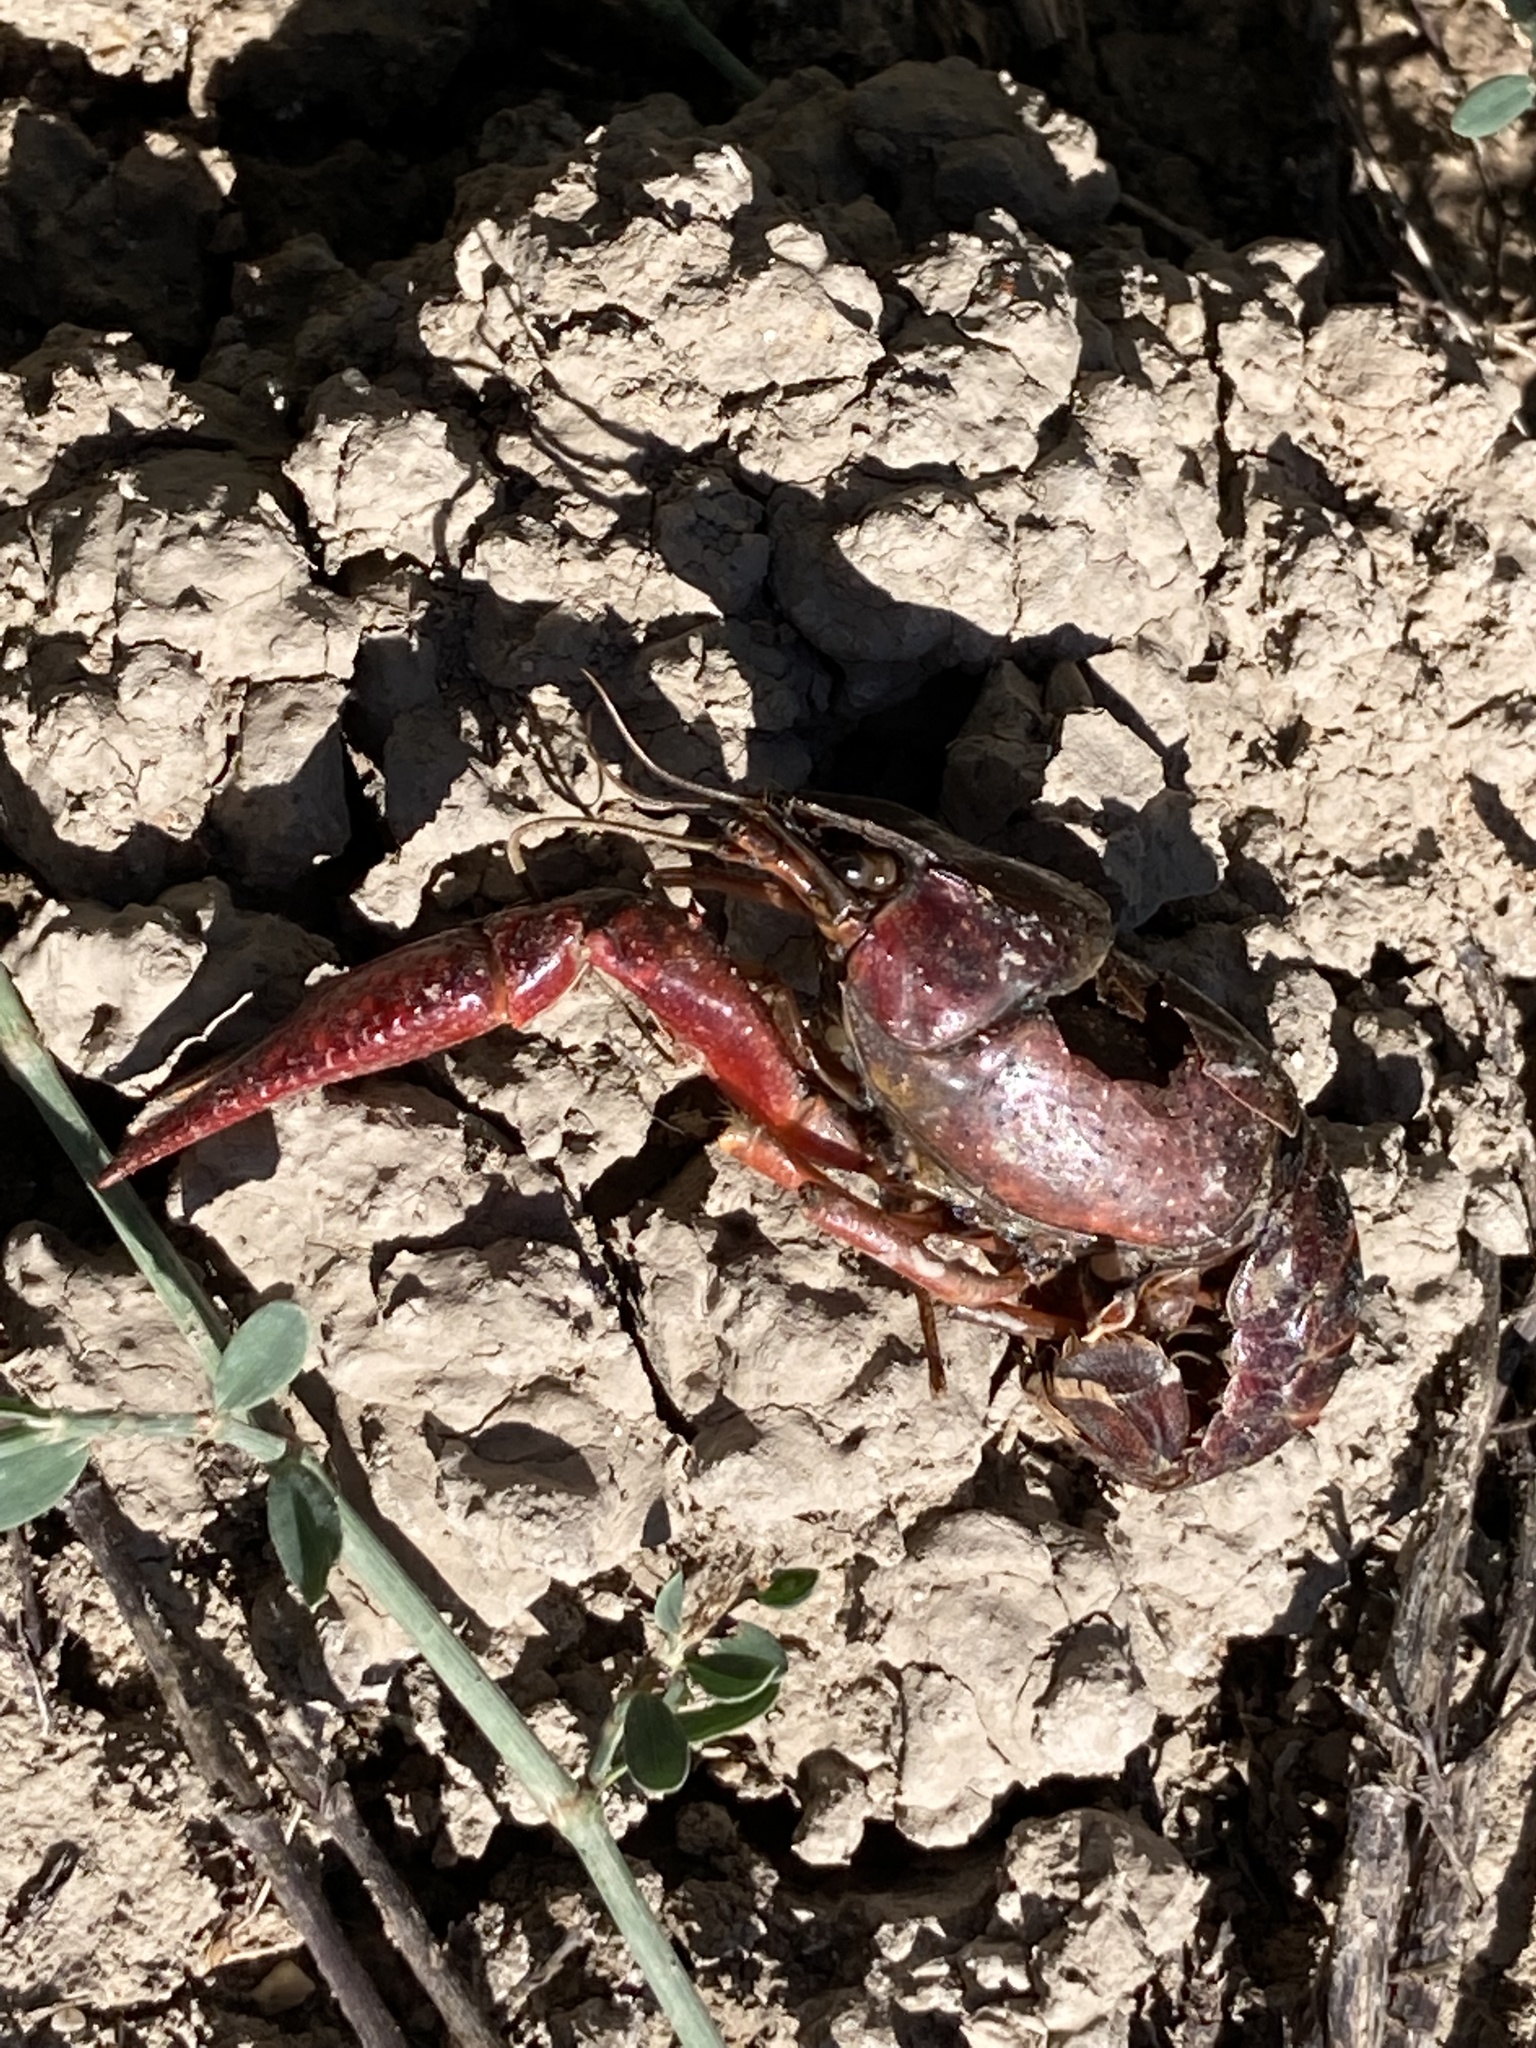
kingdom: Animalia
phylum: Arthropoda
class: Malacostraca
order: Decapoda
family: Cambaridae
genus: Procambarus
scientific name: Procambarus clarkii
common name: Red swamp crayfish
